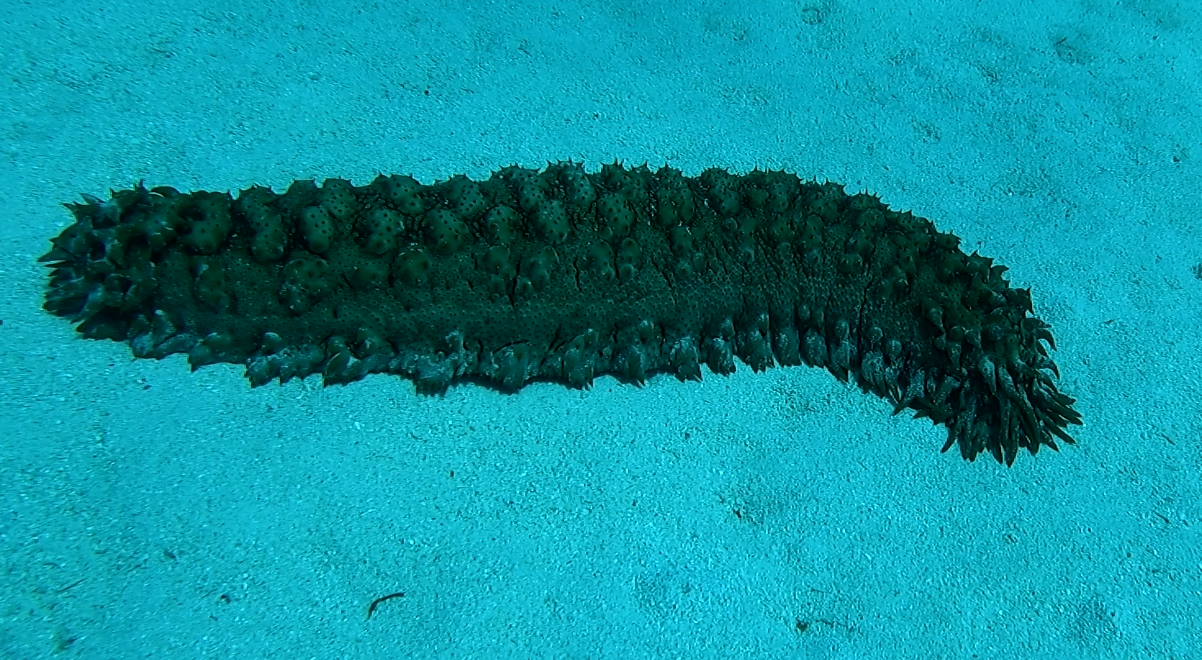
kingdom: Animalia
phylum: Echinodermata
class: Holothuroidea
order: Synallactida
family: Stichopodidae
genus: Thelenota
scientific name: Thelenota ananas
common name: Prickly redfish
